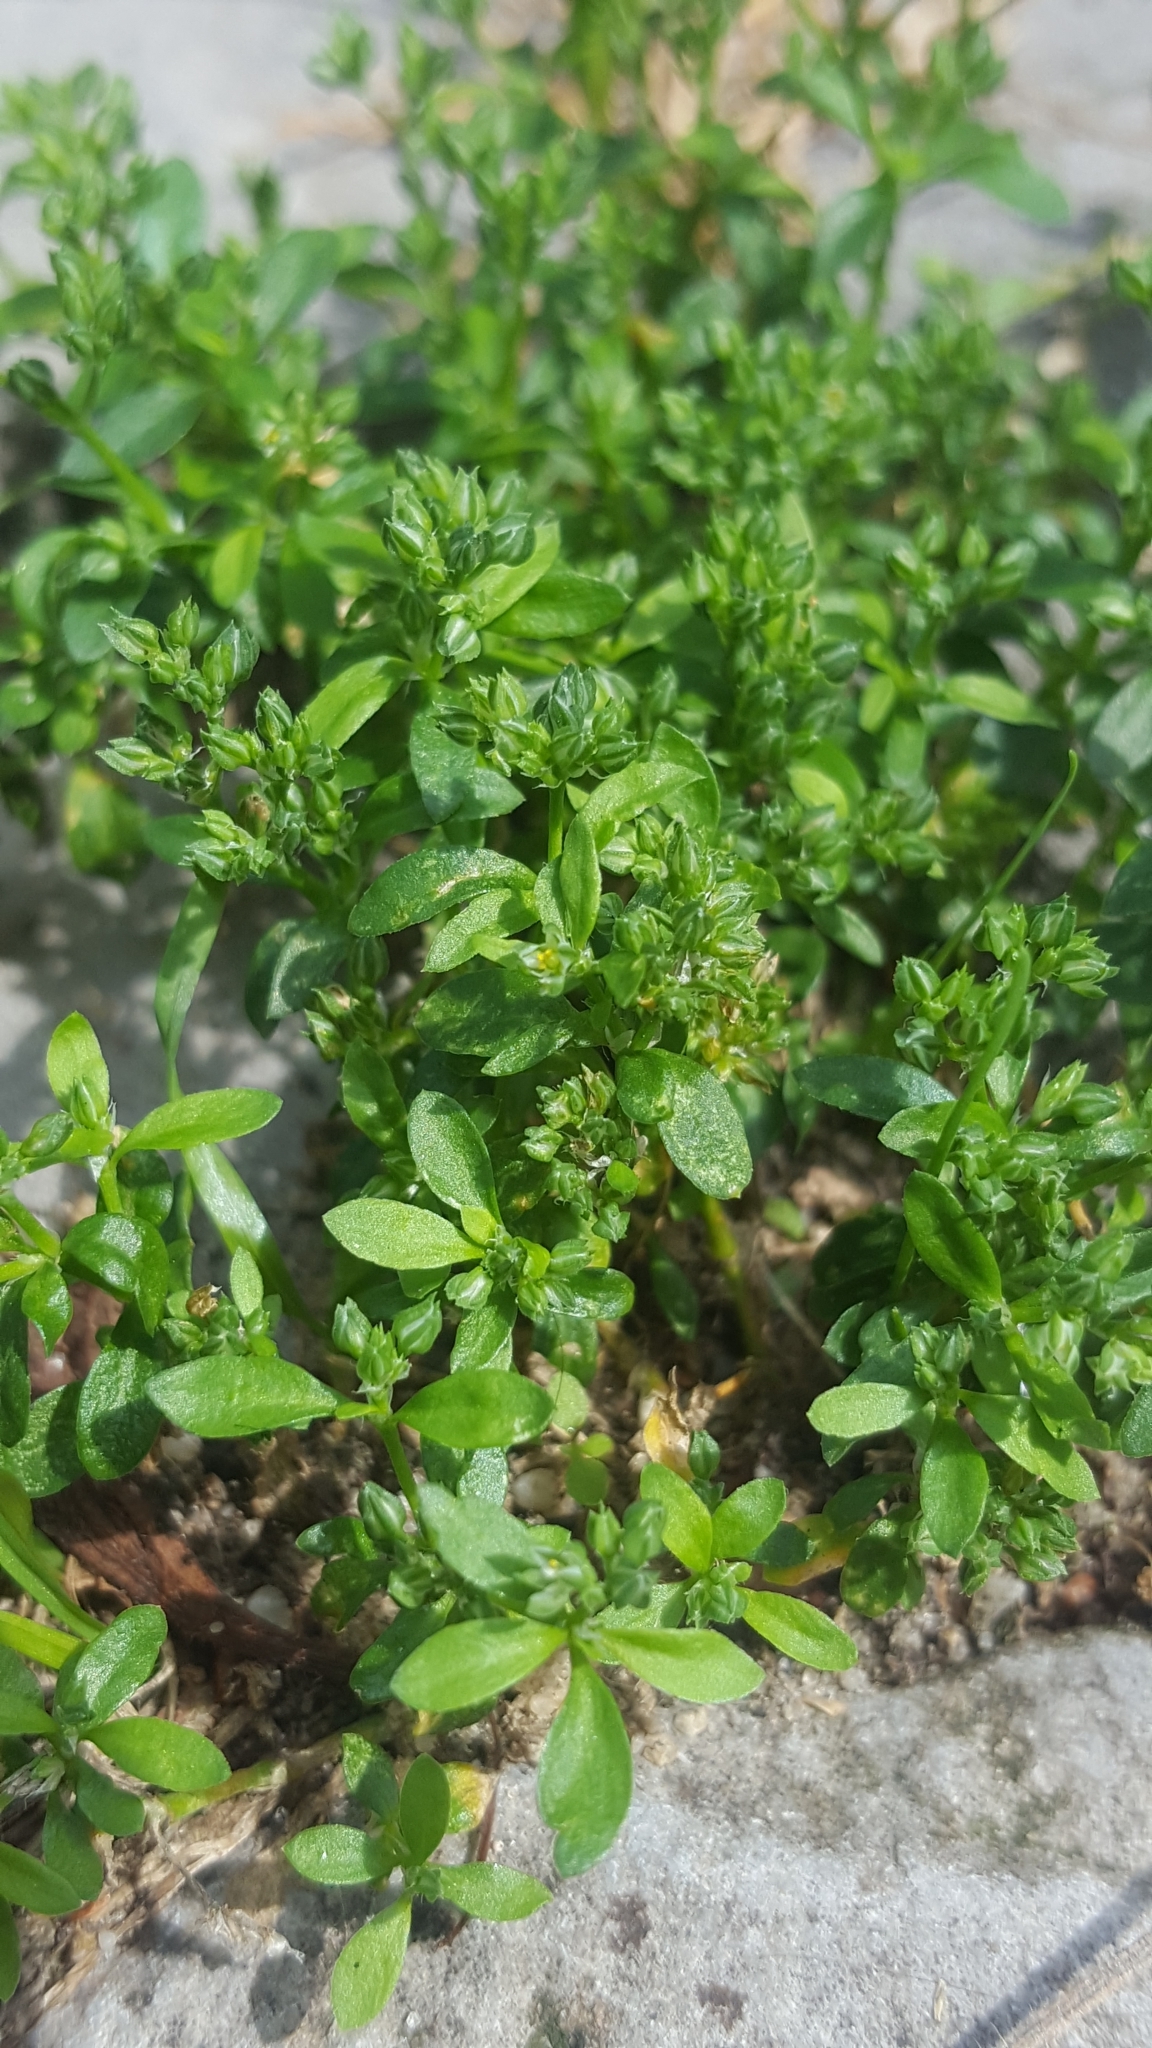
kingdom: Plantae
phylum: Tracheophyta
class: Magnoliopsida
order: Caryophyllales
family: Caryophyllaceae
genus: Herniaria
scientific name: Herniaria glabra
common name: Smooth rupturewort
